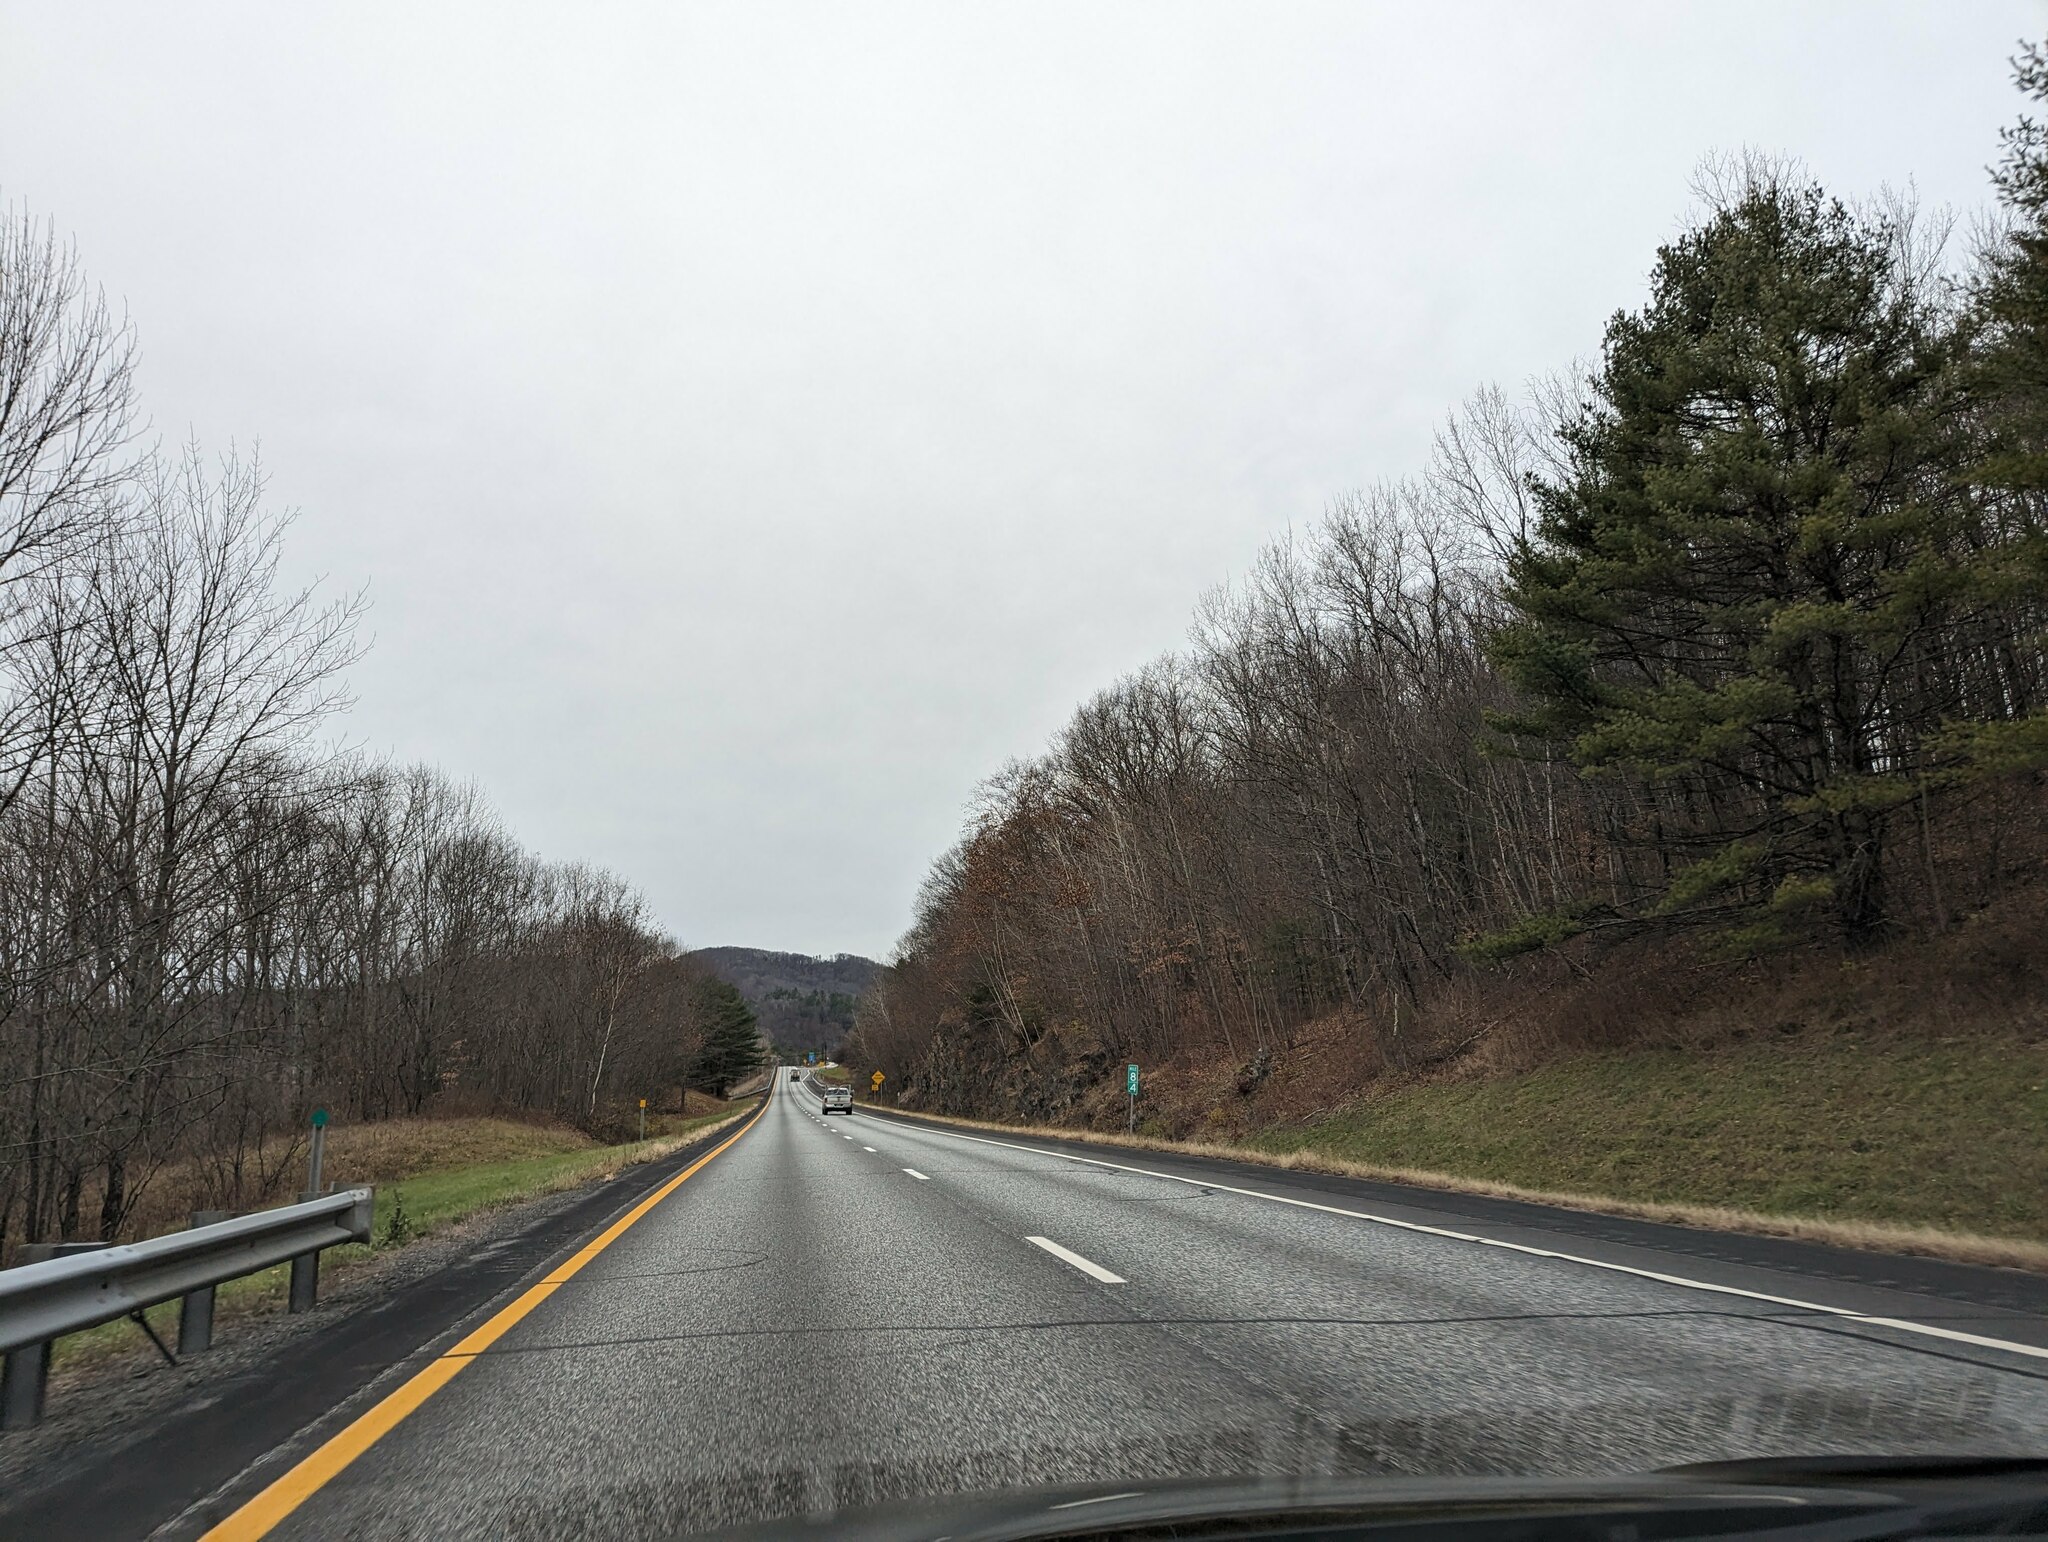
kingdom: Plantae
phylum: Tracheophyta
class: Pinopsida
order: Pinales
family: Pinaceae
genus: Pinus
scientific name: Pinus strobus
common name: Weymouth pine
